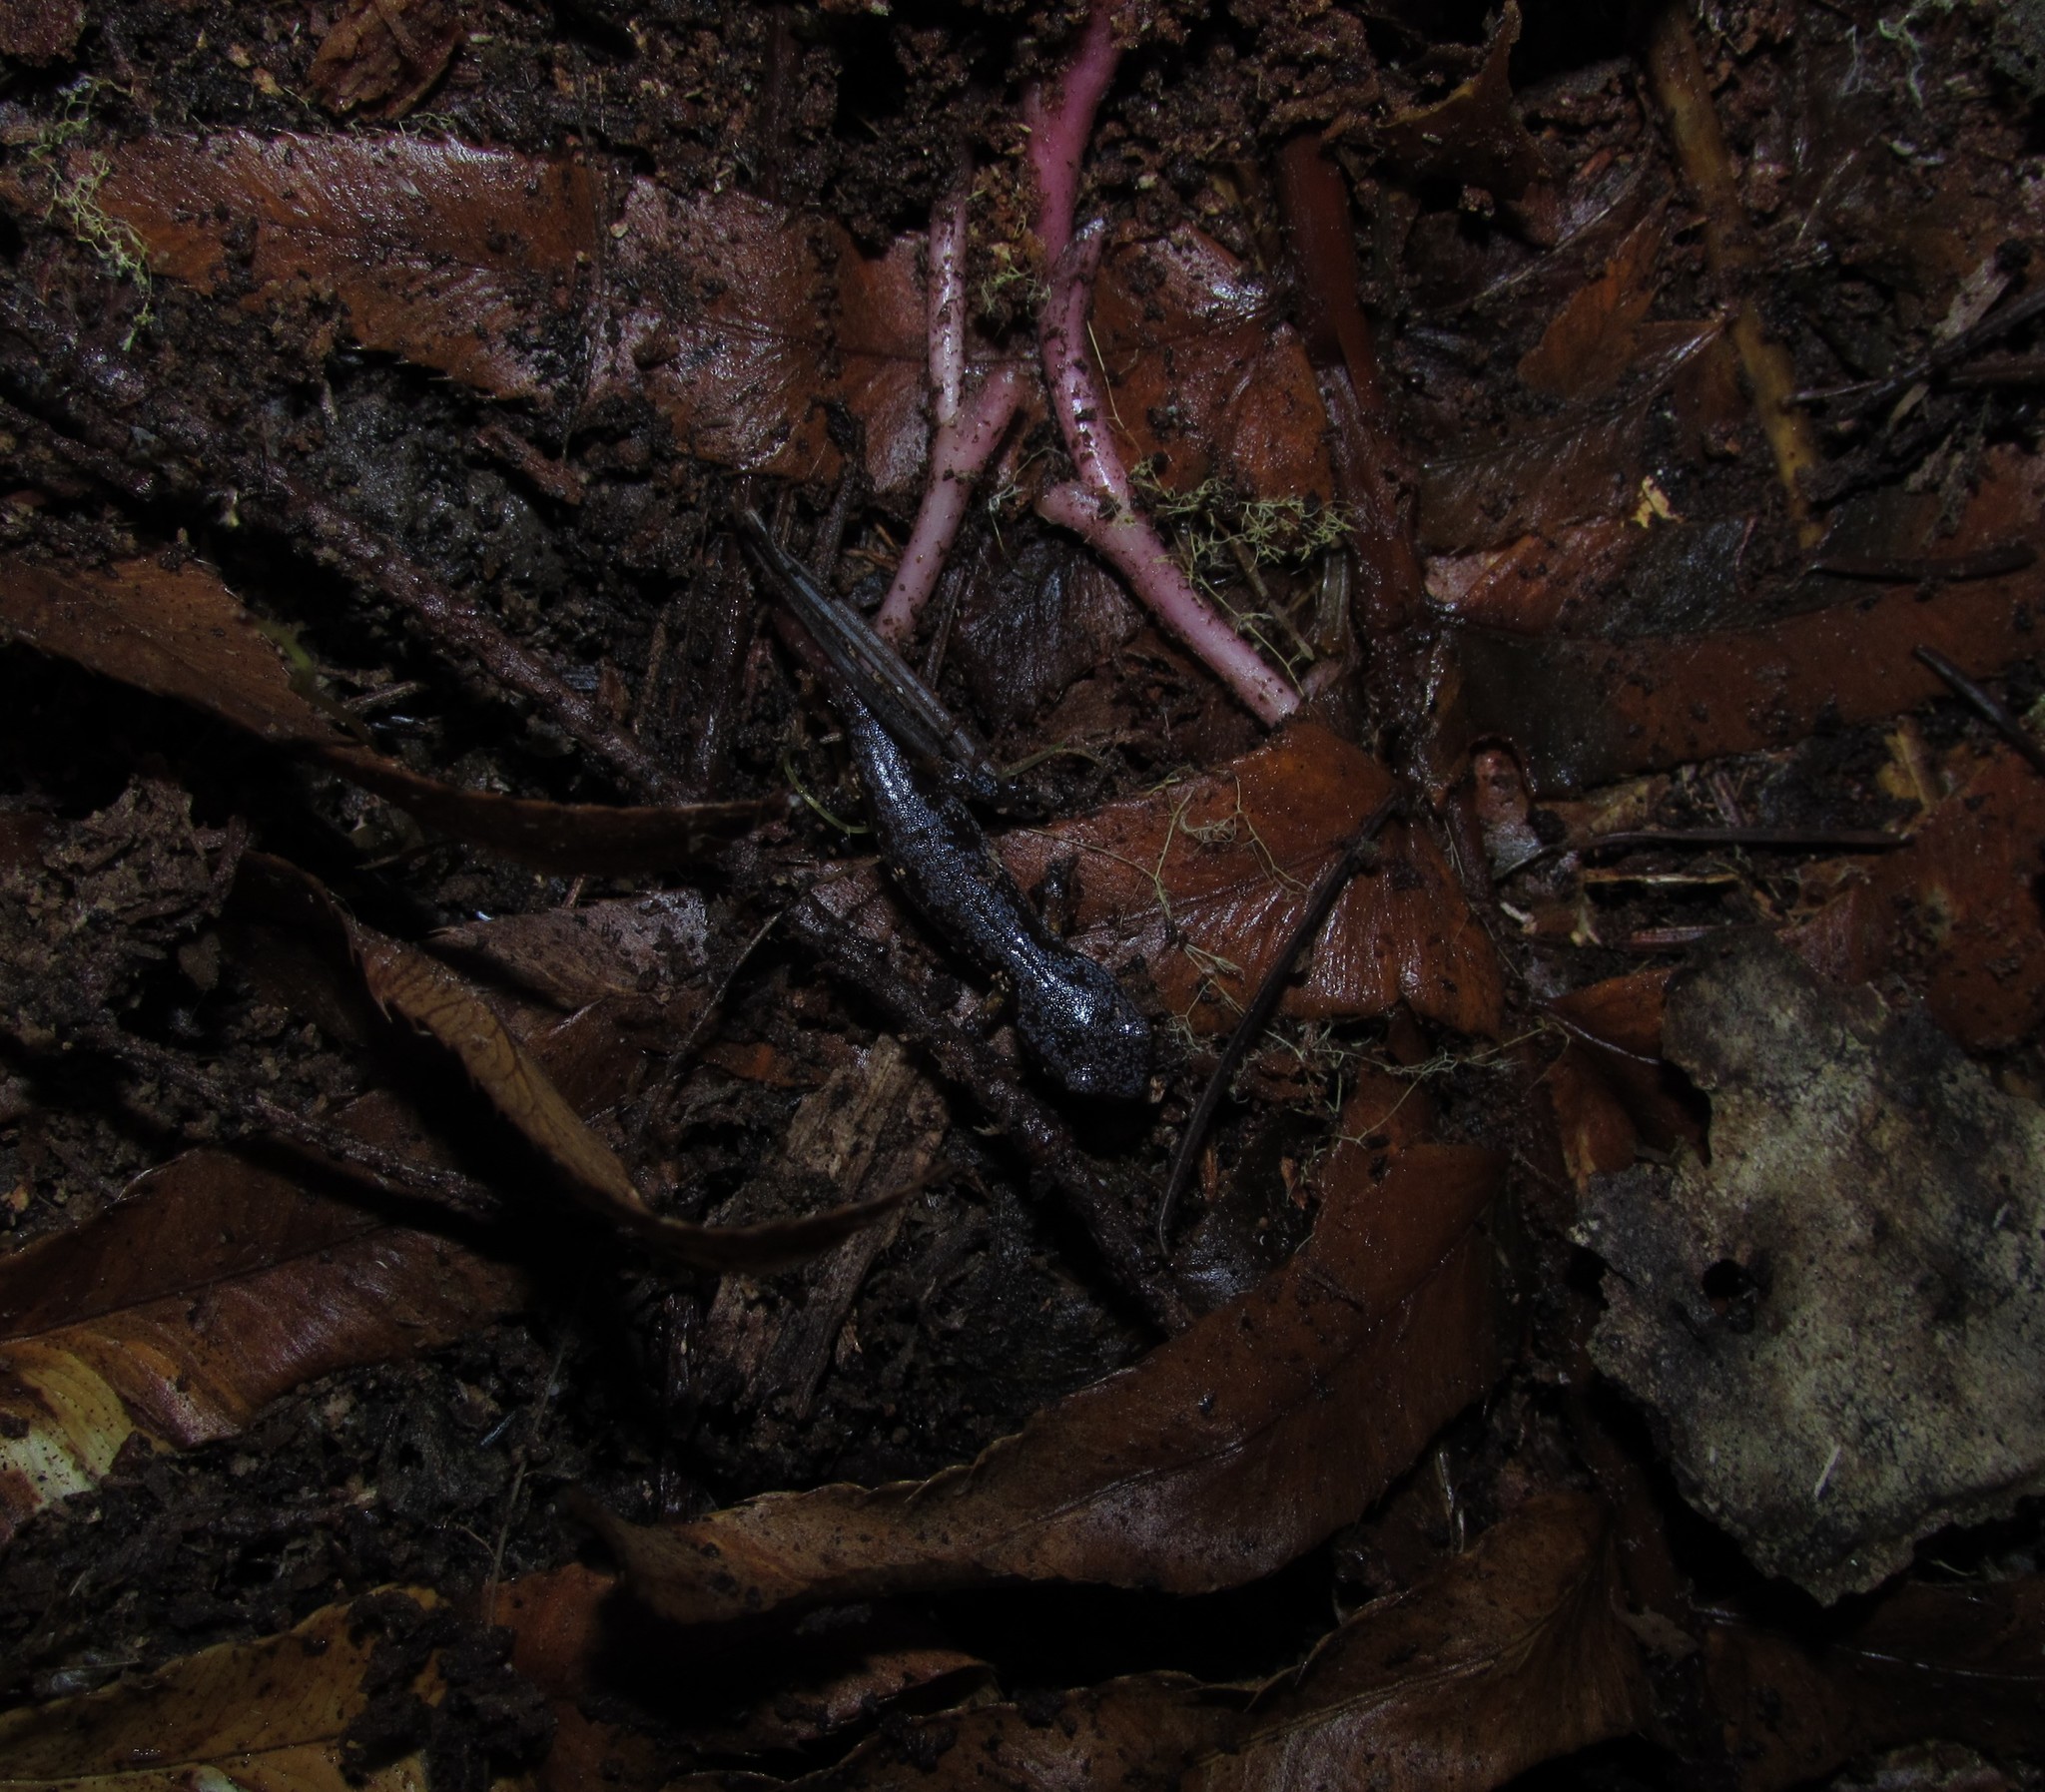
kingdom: Animalia
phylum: Chordata
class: Amphibia
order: Caudata
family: Plethodontidae
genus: Ensatina
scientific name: Ensatina eschscholtzii
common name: Ensatina
